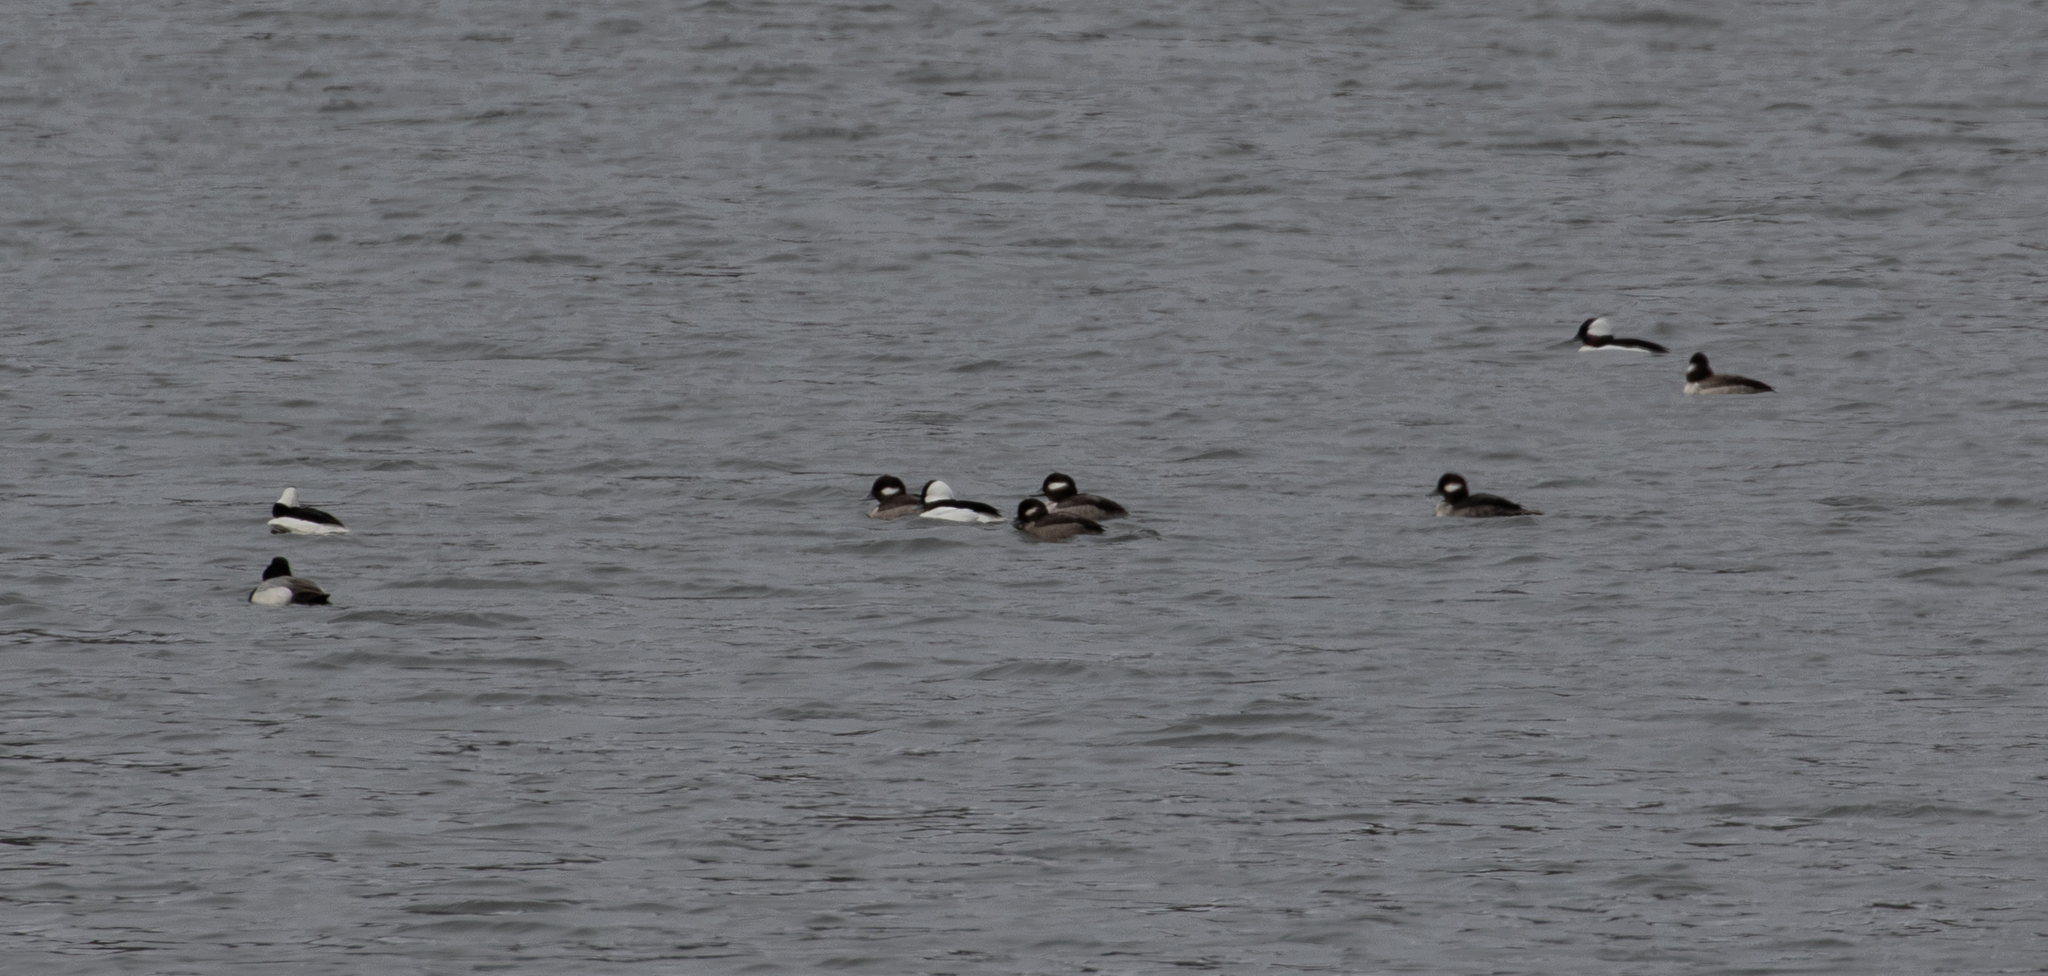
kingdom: Animalia
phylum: Chordata
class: Aves
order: Anseriformes
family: Anatidae
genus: Bucephala
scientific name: Bucephala albeola
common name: Bufflehead
